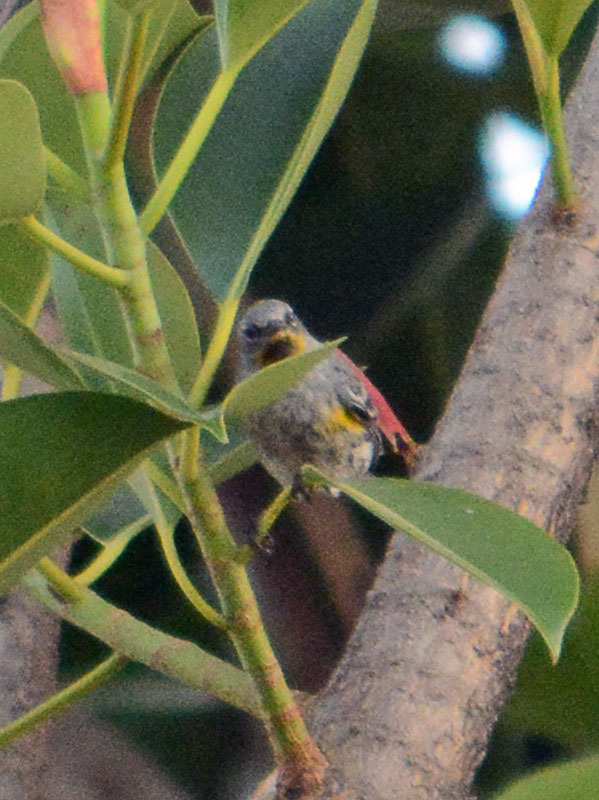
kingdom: Animalia
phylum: Chordata
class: Aves
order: Passeriformes
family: Parulidae
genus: Setophaga
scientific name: Setophaga auduboni
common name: Audubon's warbler
